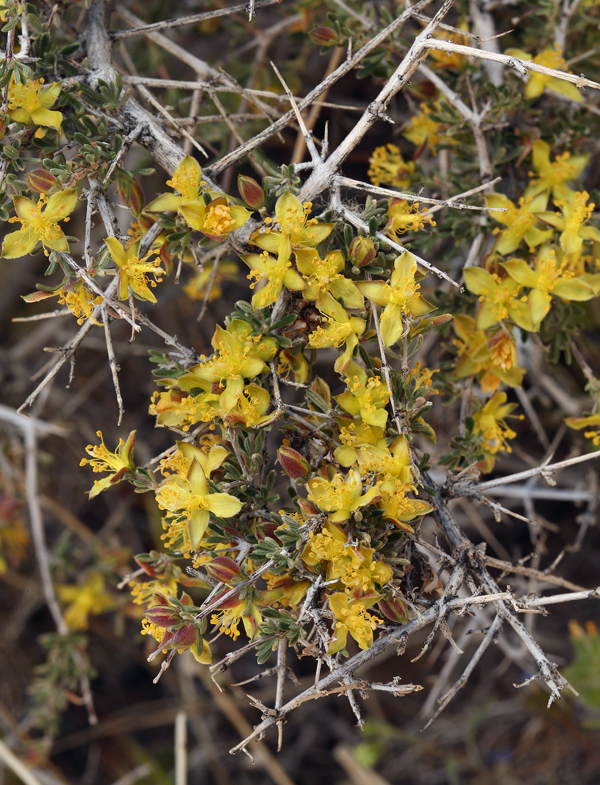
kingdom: Plantae
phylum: Tracheophyta
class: Magnoliopsida
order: Rosales
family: Rosaceae
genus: Coleogyne
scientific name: Coleogyne ramosissima
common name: Blackbrush
